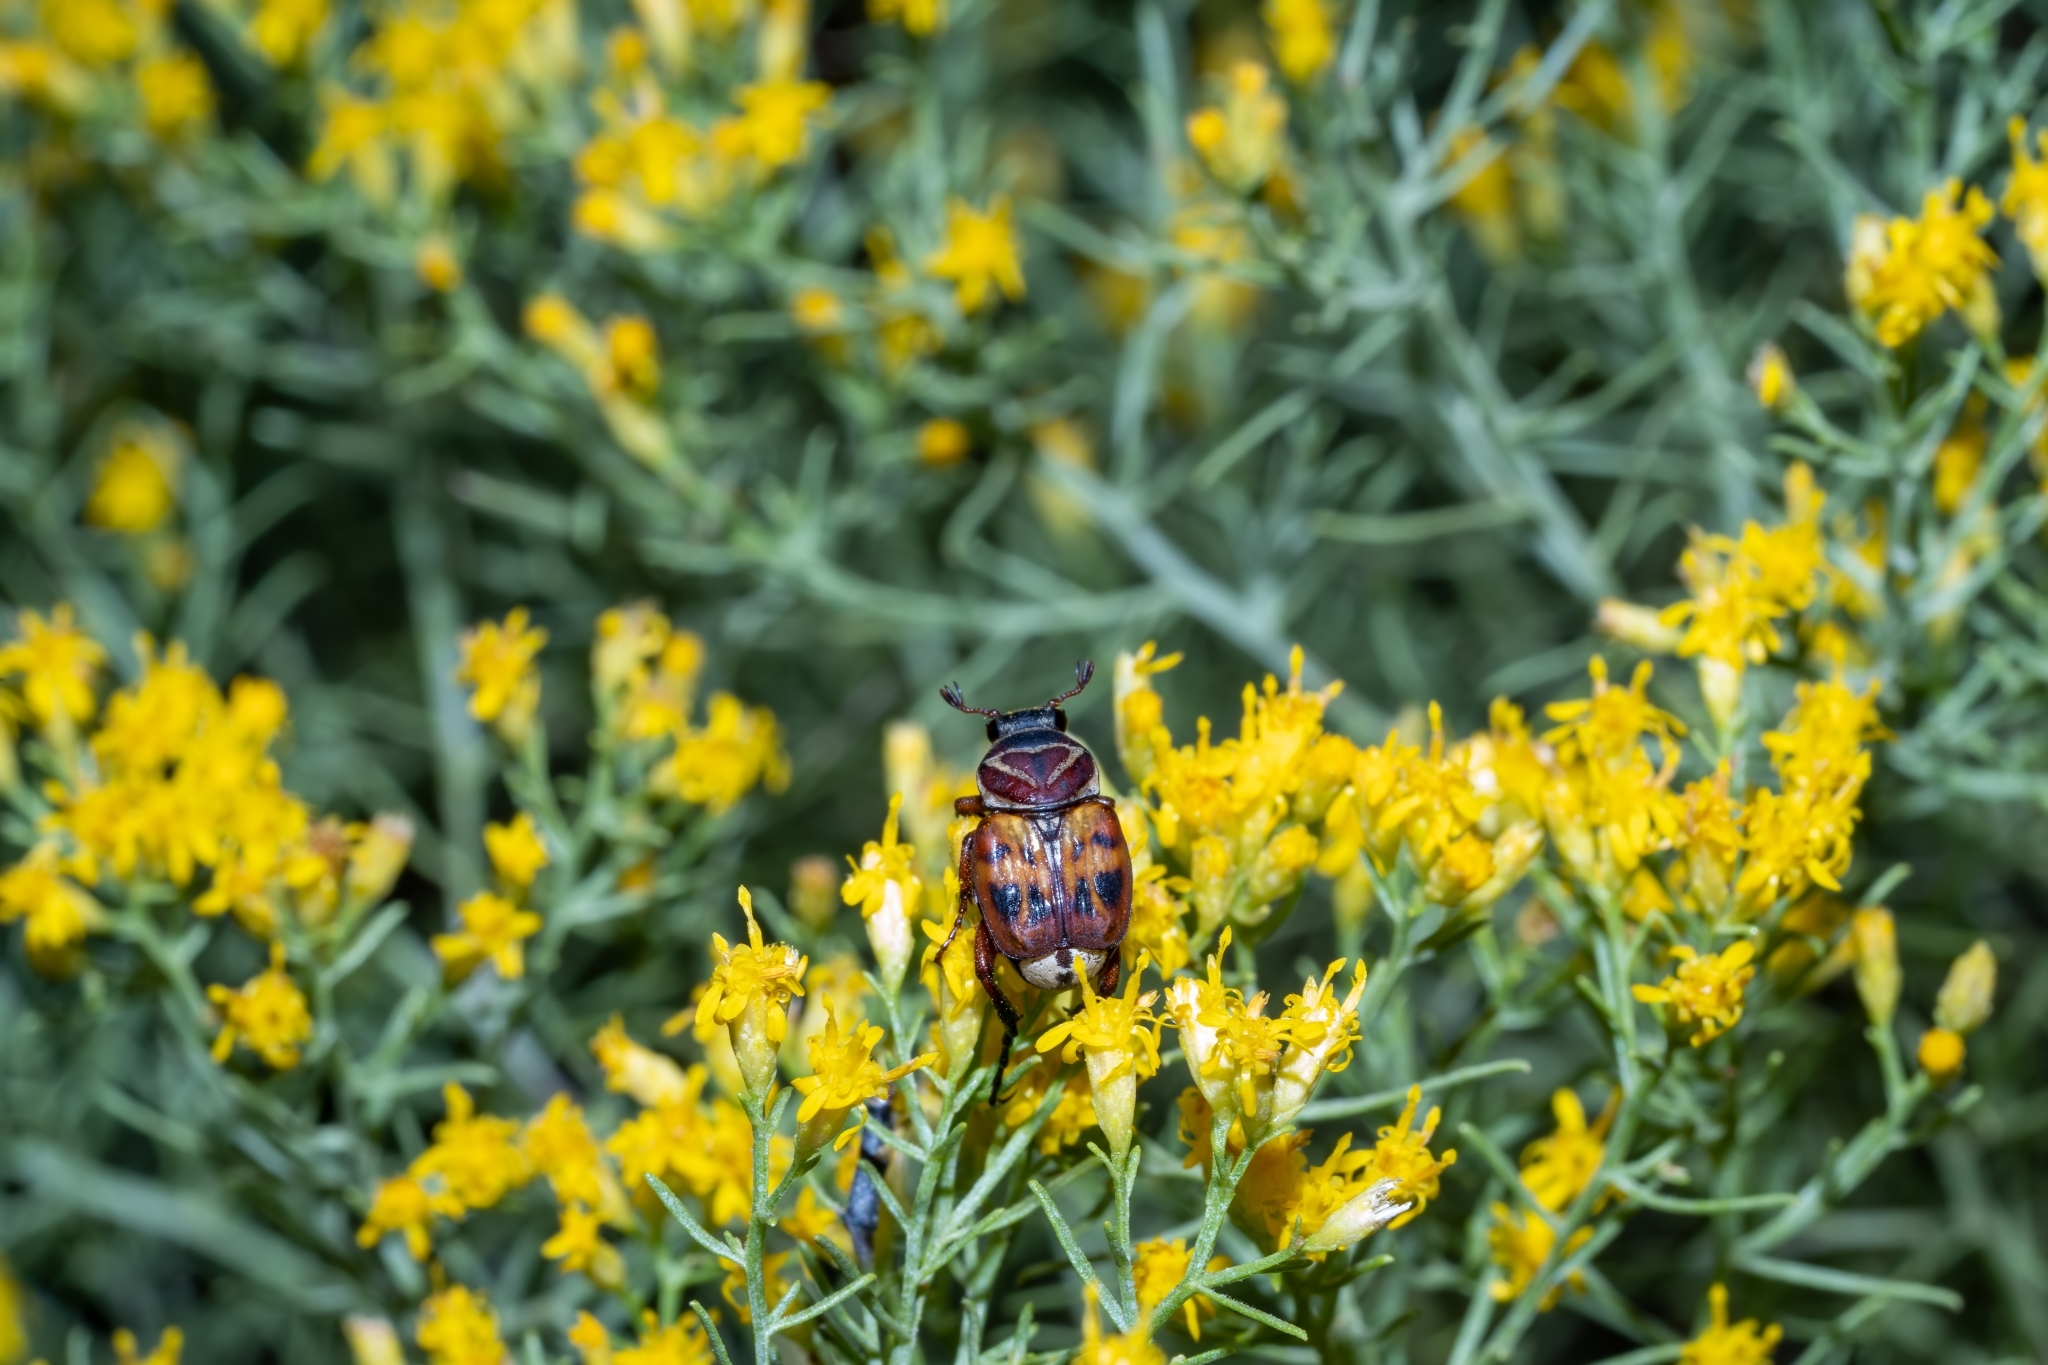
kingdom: Animalia
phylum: Arthropoda
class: Insecta
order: Coleoptera
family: Scarabaeidae
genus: Trigonopeltastes
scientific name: Trigonopeltastes delta
